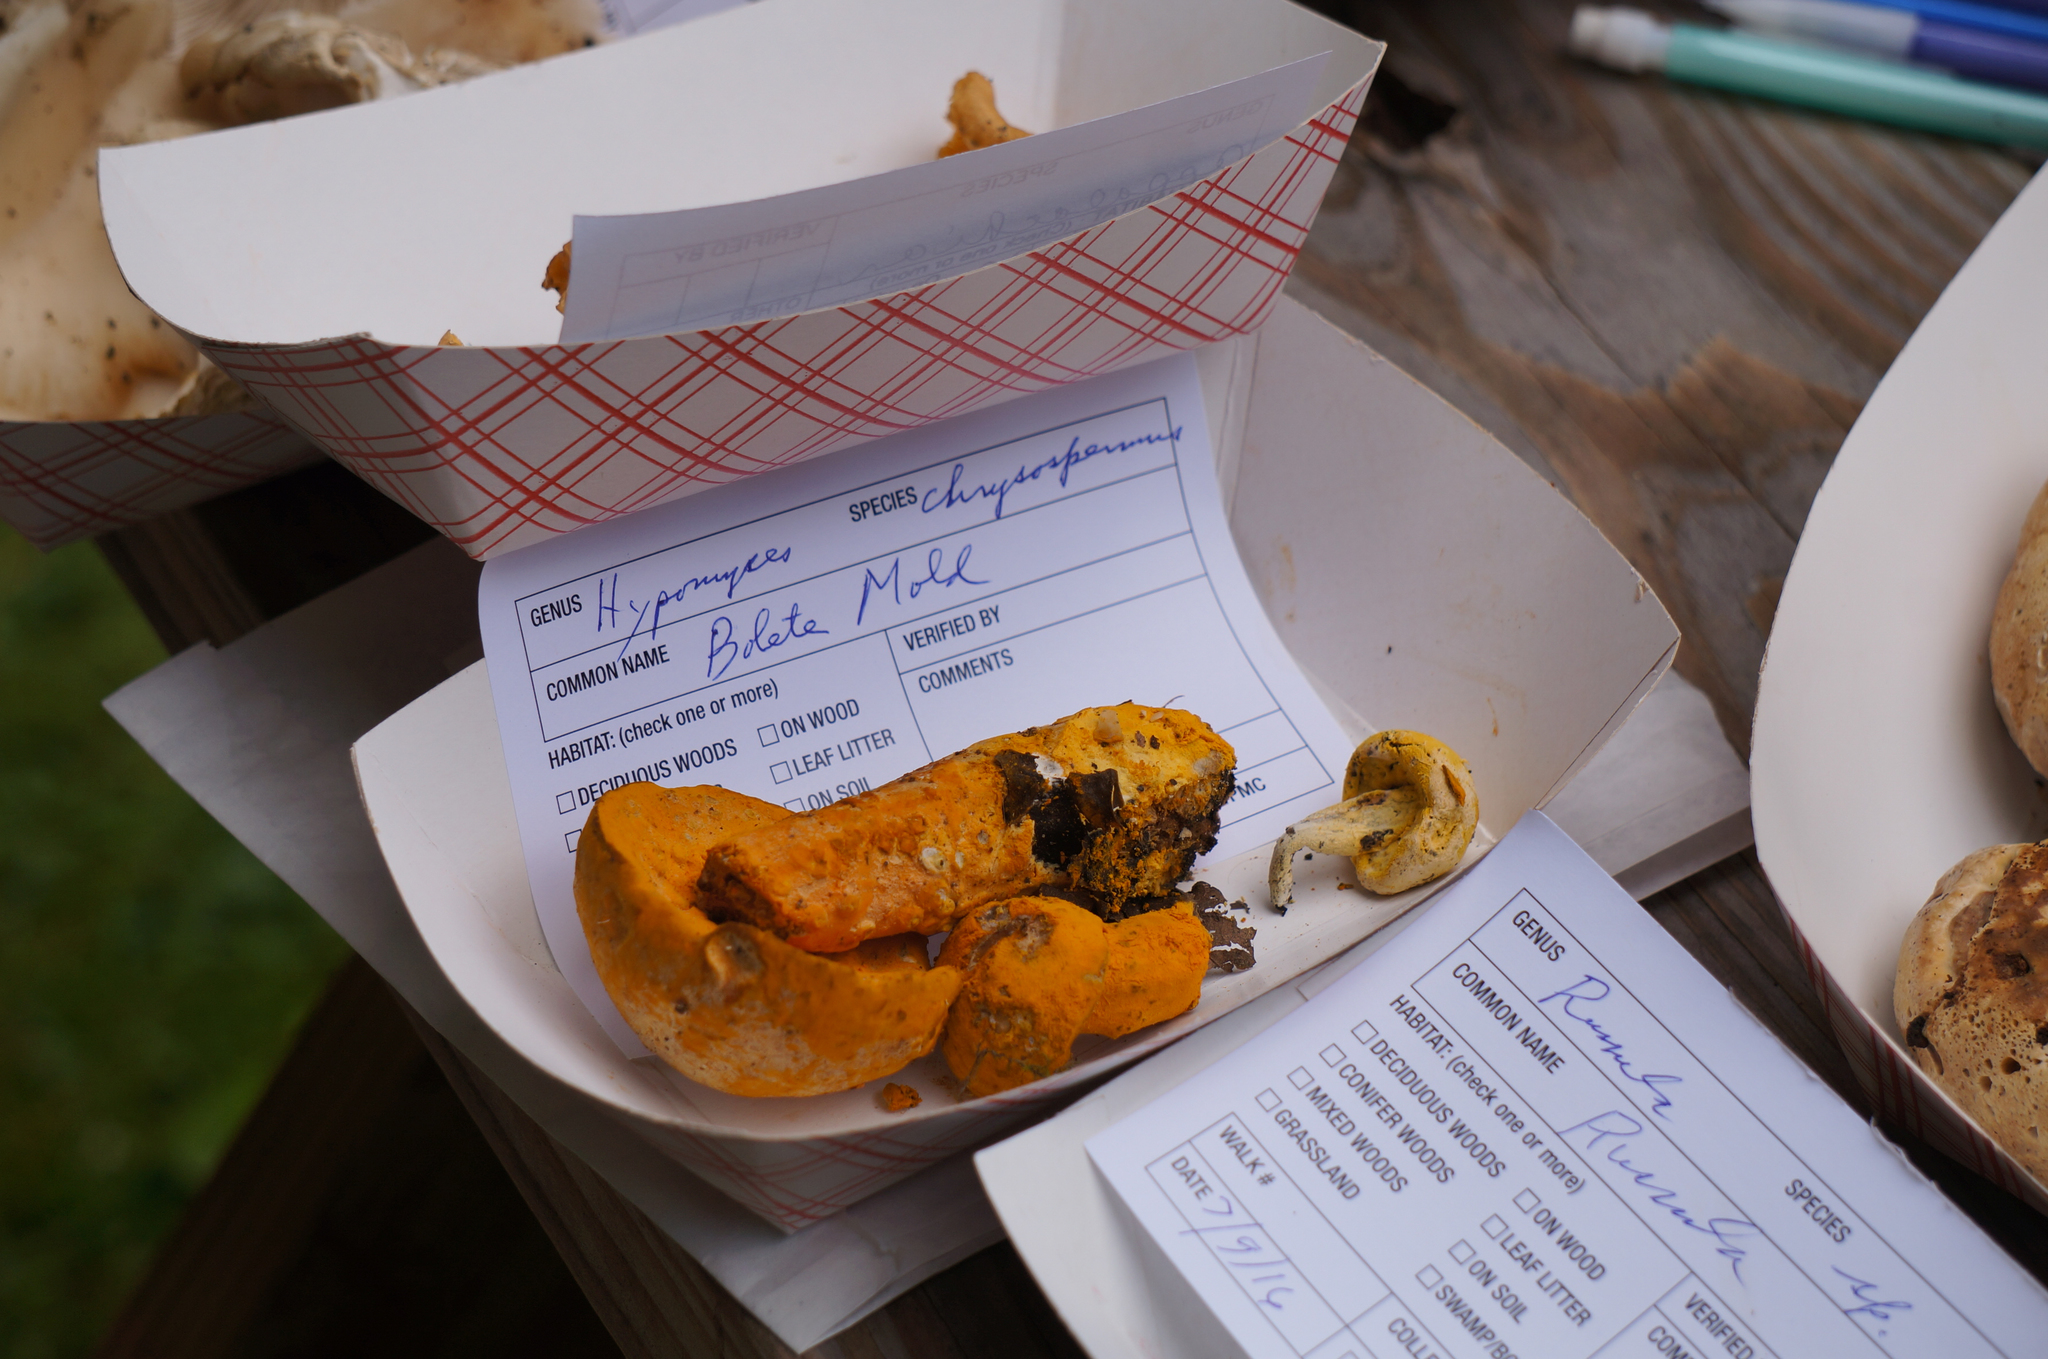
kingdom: Fungi
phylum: Ascomycota
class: Sordariomycetes
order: Hypocreales
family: Hypocreaceae
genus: Hypomyces
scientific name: Hypomyces chrysospermus
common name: Bolete mould
